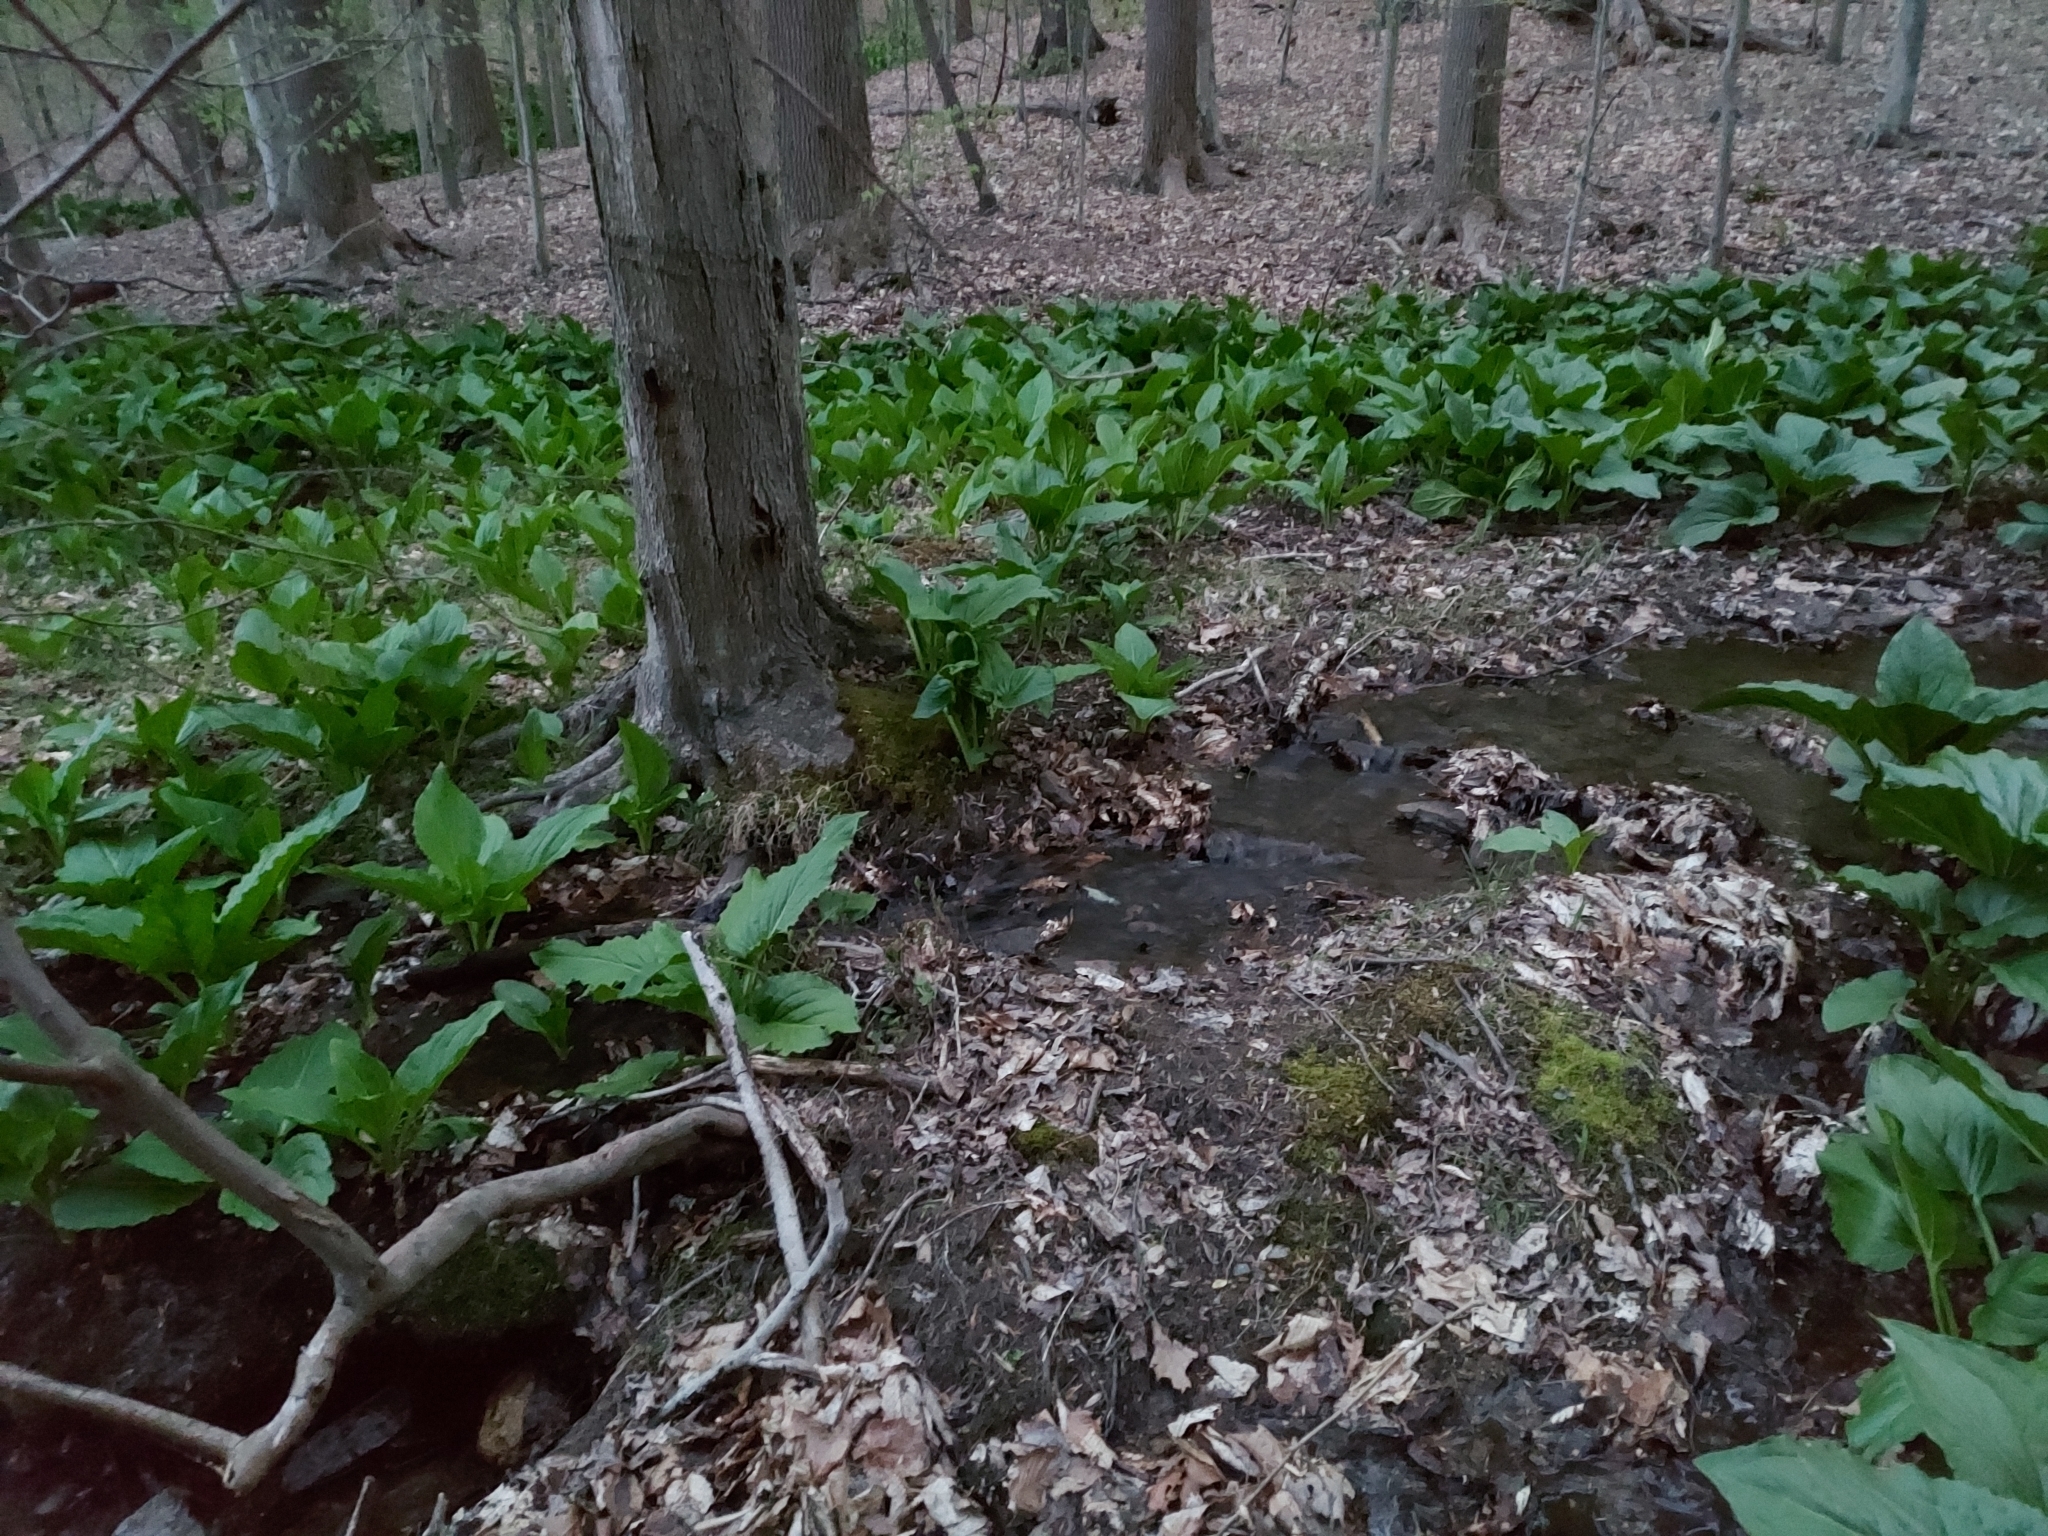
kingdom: Plantae
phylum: Tracheophyta
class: Liliopsida
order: Alismatales
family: Araceae
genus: Symplocarpus
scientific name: Symplocarpus foetidus
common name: Eastern skunk cabbage
